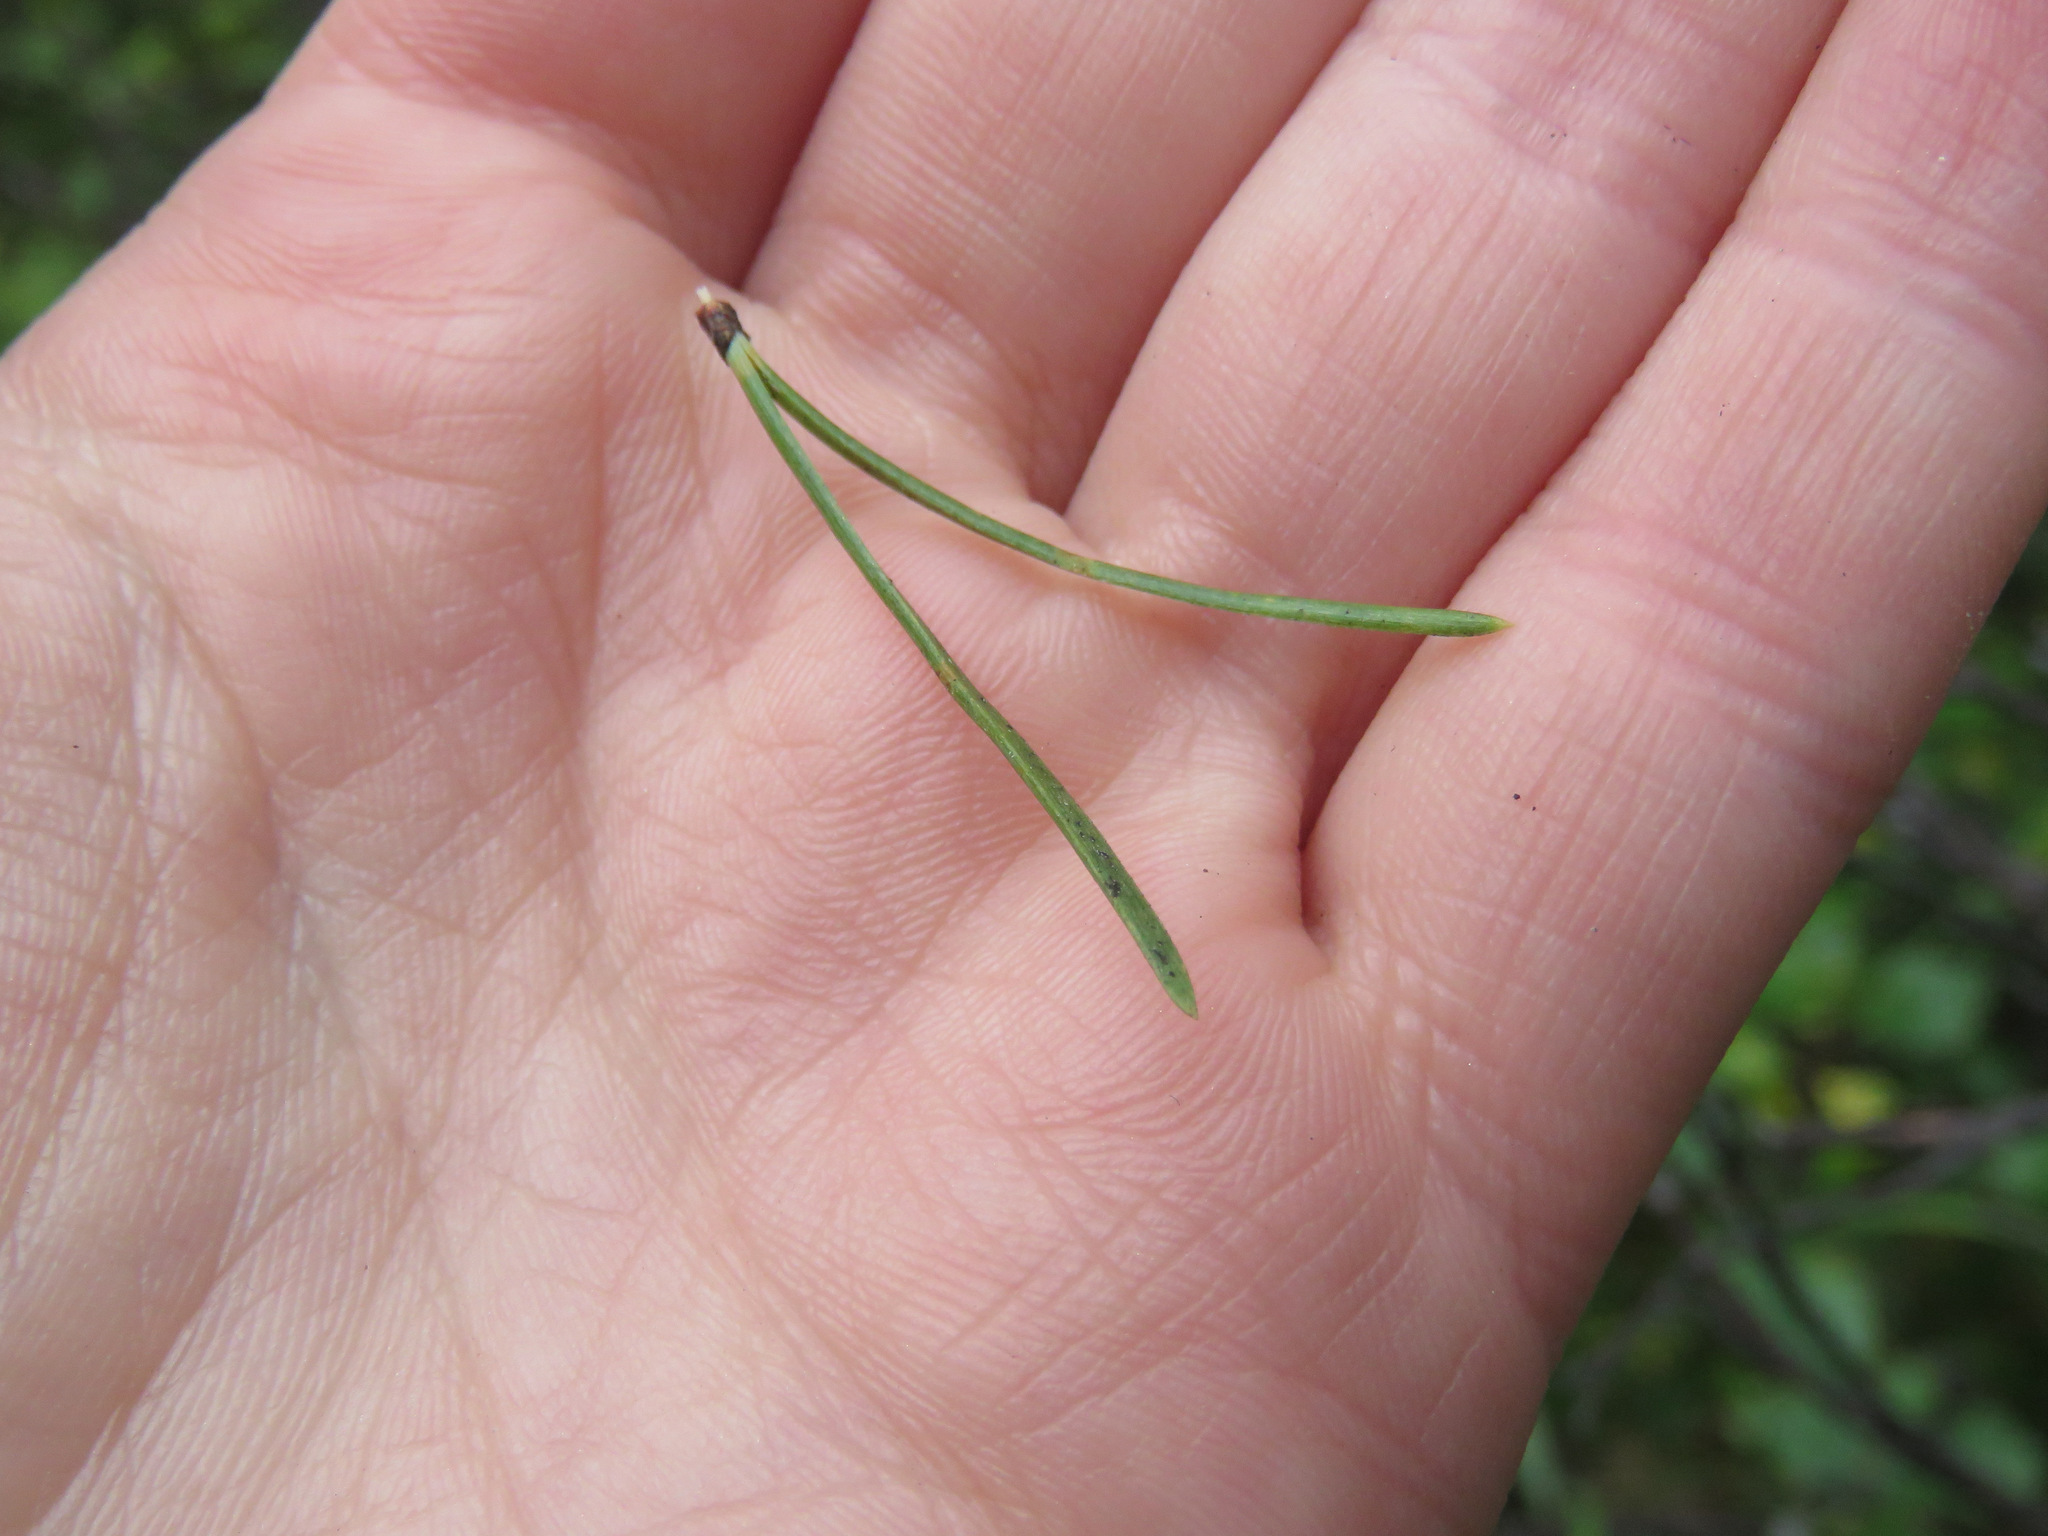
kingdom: Plantae
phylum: Tracheophyta
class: Pinopsida
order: Pinales
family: Pinaceae
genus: Pinus
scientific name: Pinus contorta
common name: Lodgepole pine
